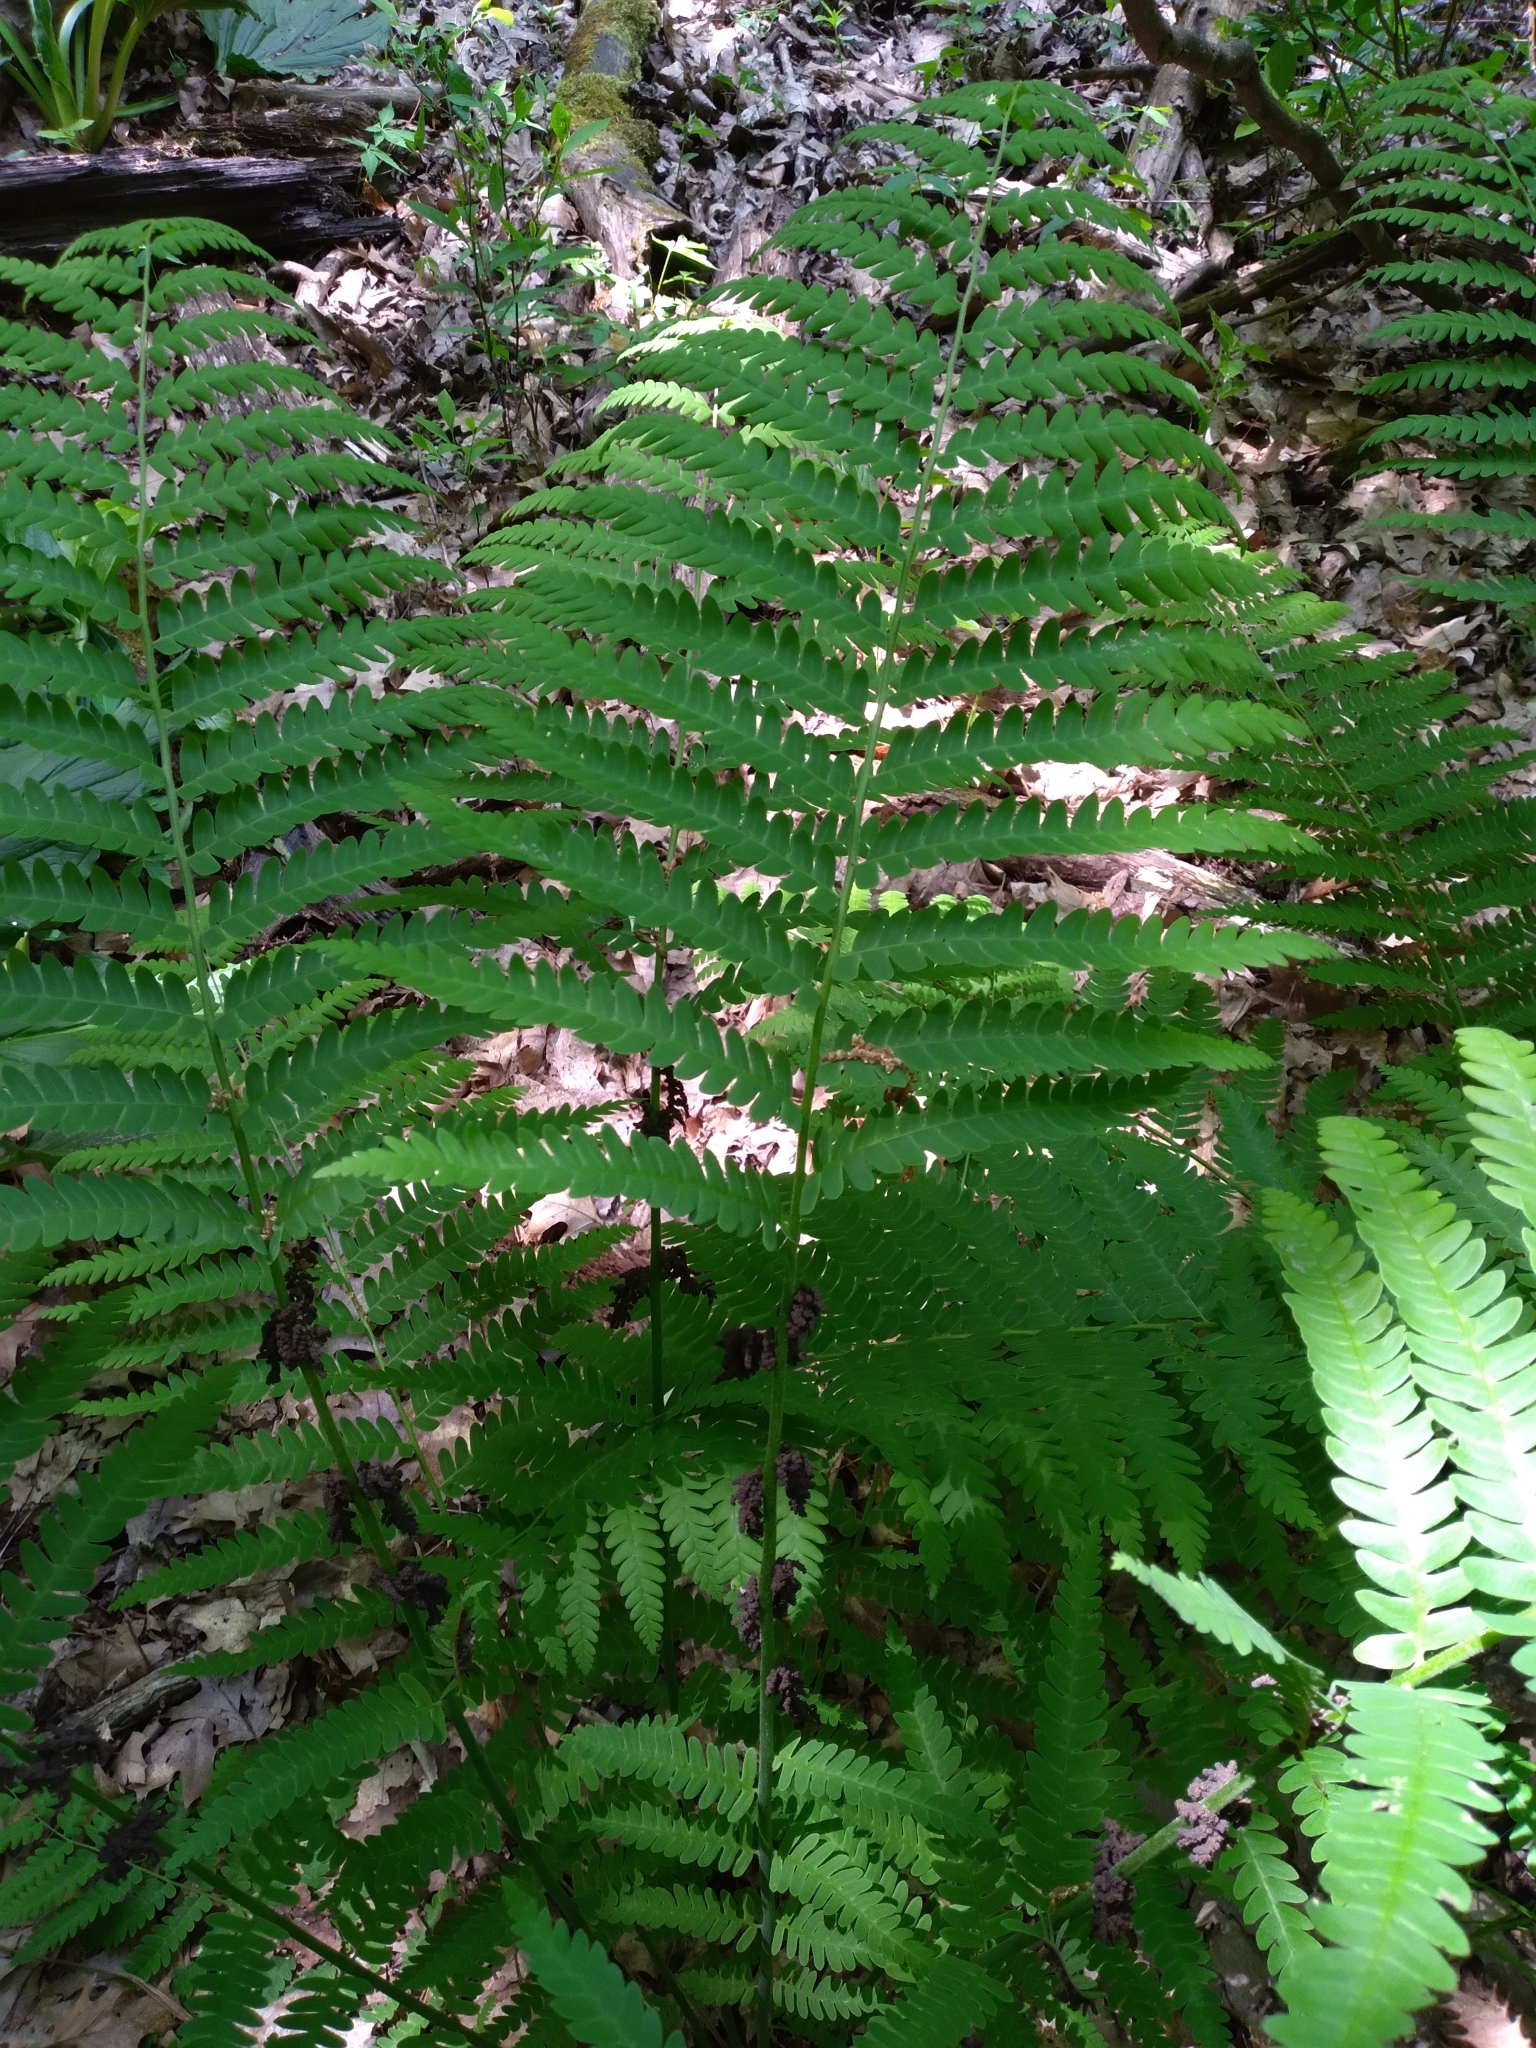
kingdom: Plantae
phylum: Tracheophyta
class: Polypodiopsida
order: Osmundales
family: Osmundaceae
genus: Claytosmunda
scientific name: Claytosmunda claytoniana
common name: Clayton's fern
